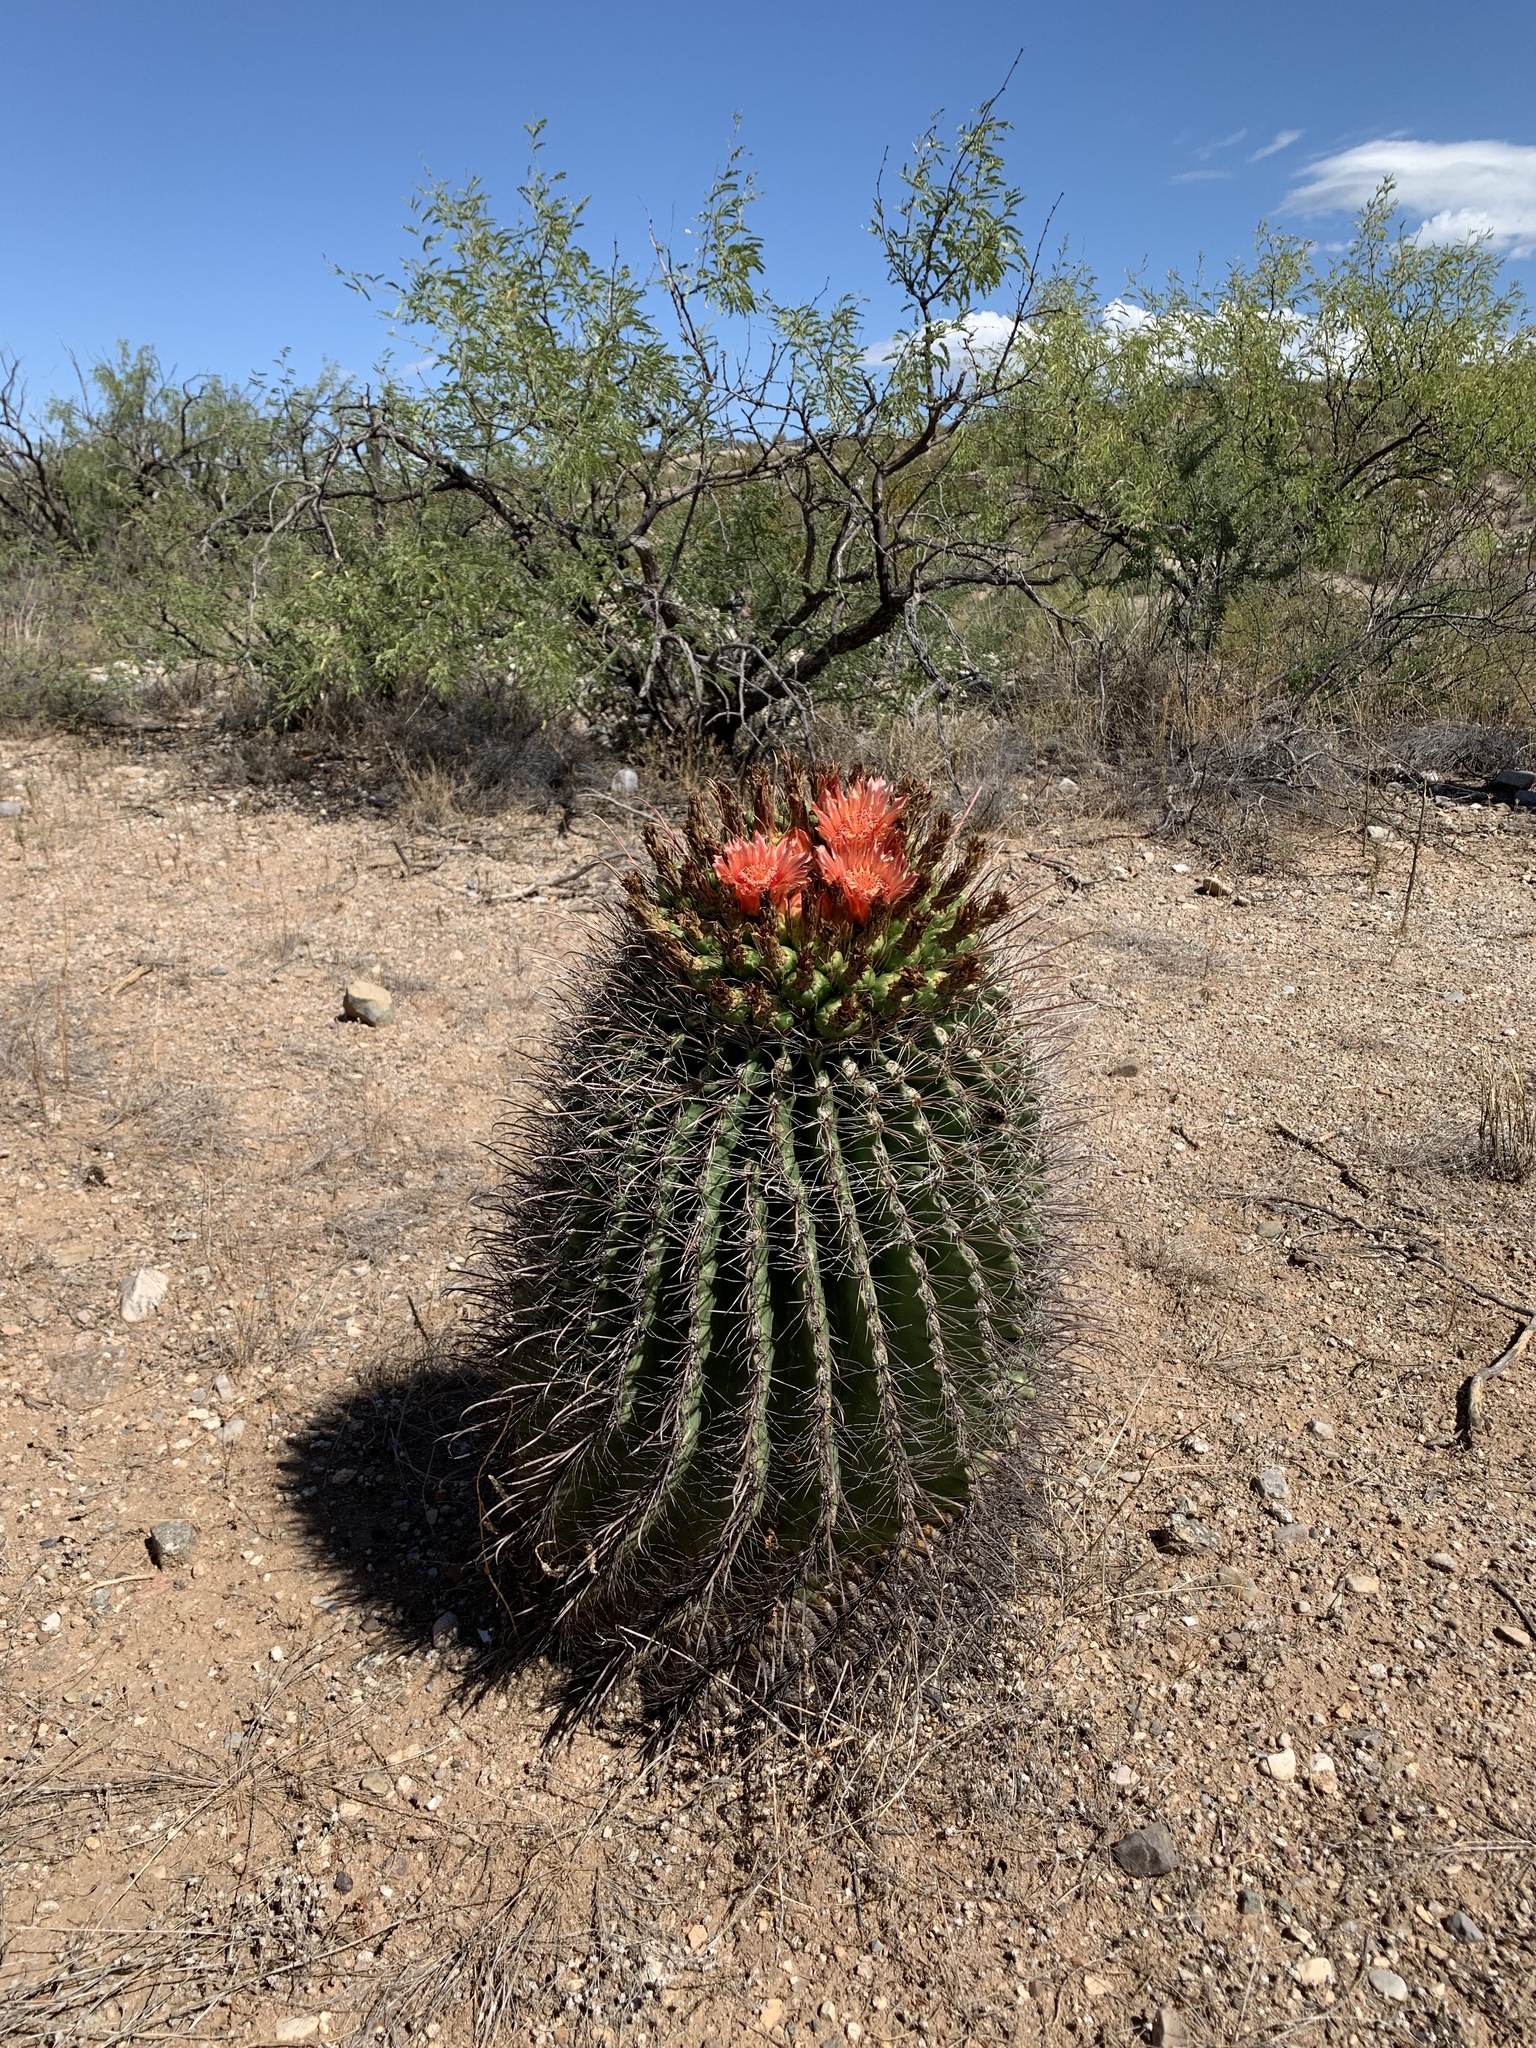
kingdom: Plantae
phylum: Tracheophyta
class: Magnoliopsida
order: Caryophyllales
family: Cactaceae
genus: Ferocactus
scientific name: Ferocactus wislizeni
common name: Candy barrel cactus
